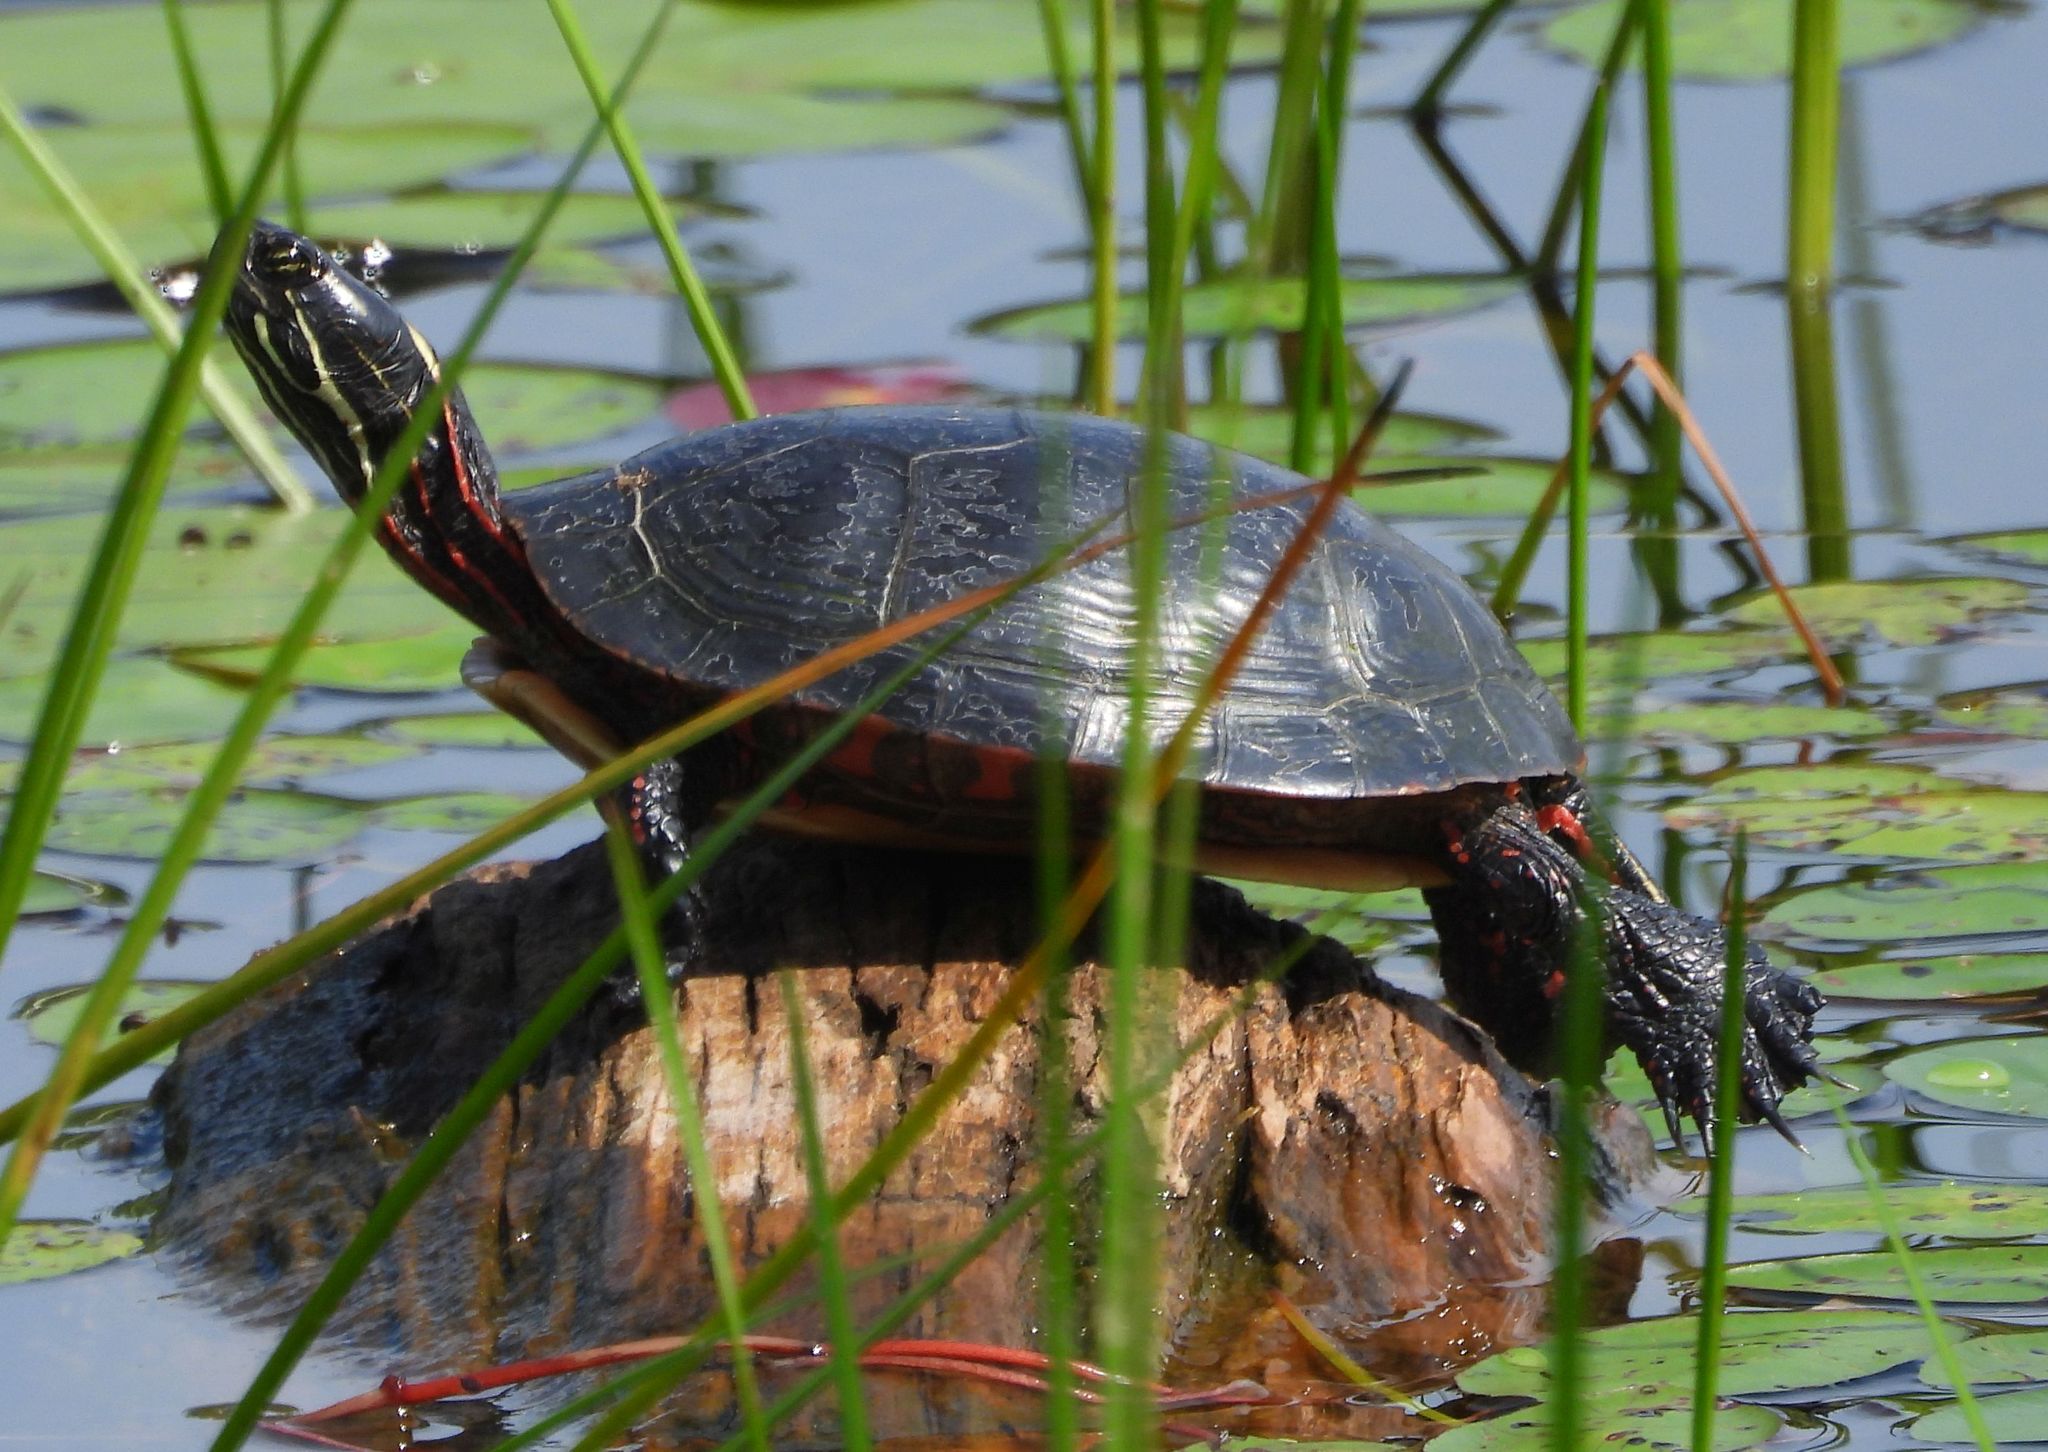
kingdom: Animalia
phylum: Chordata
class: Testudines
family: Emydidae
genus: Chrysemys
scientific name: Chrysemys picta
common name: Painted turtle
